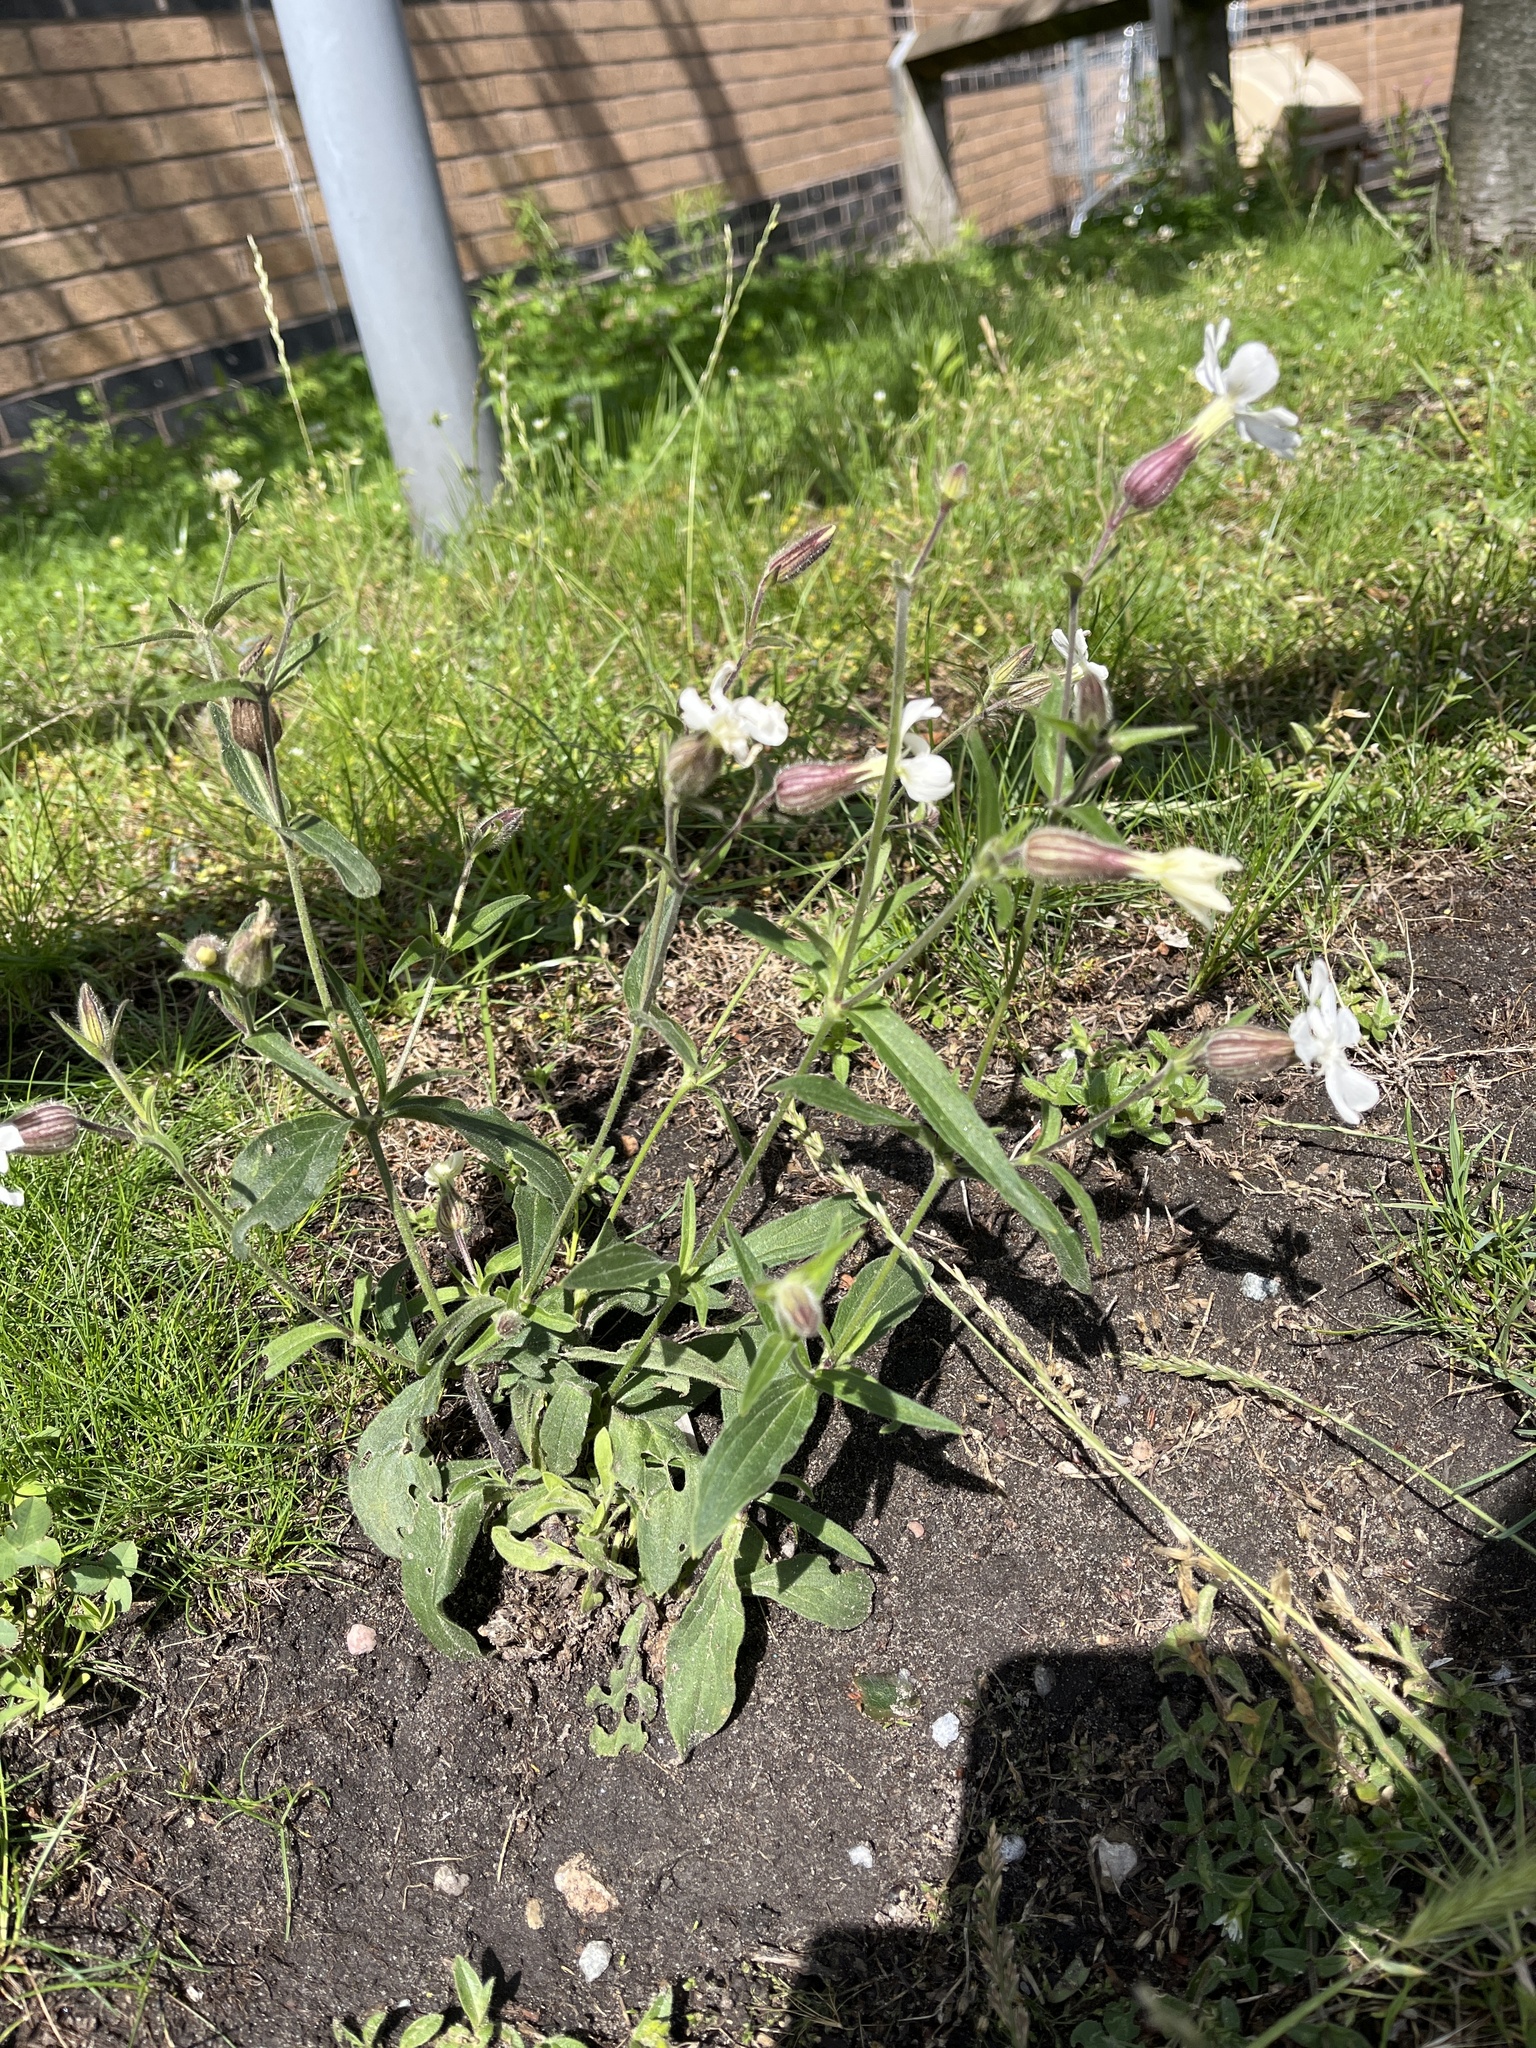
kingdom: Plantae
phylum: Tracheophyta
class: Magnoliopsida
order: Caryophyllales
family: Caryophyllaceae
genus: Silene
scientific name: Silene latifolia
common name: White campion
